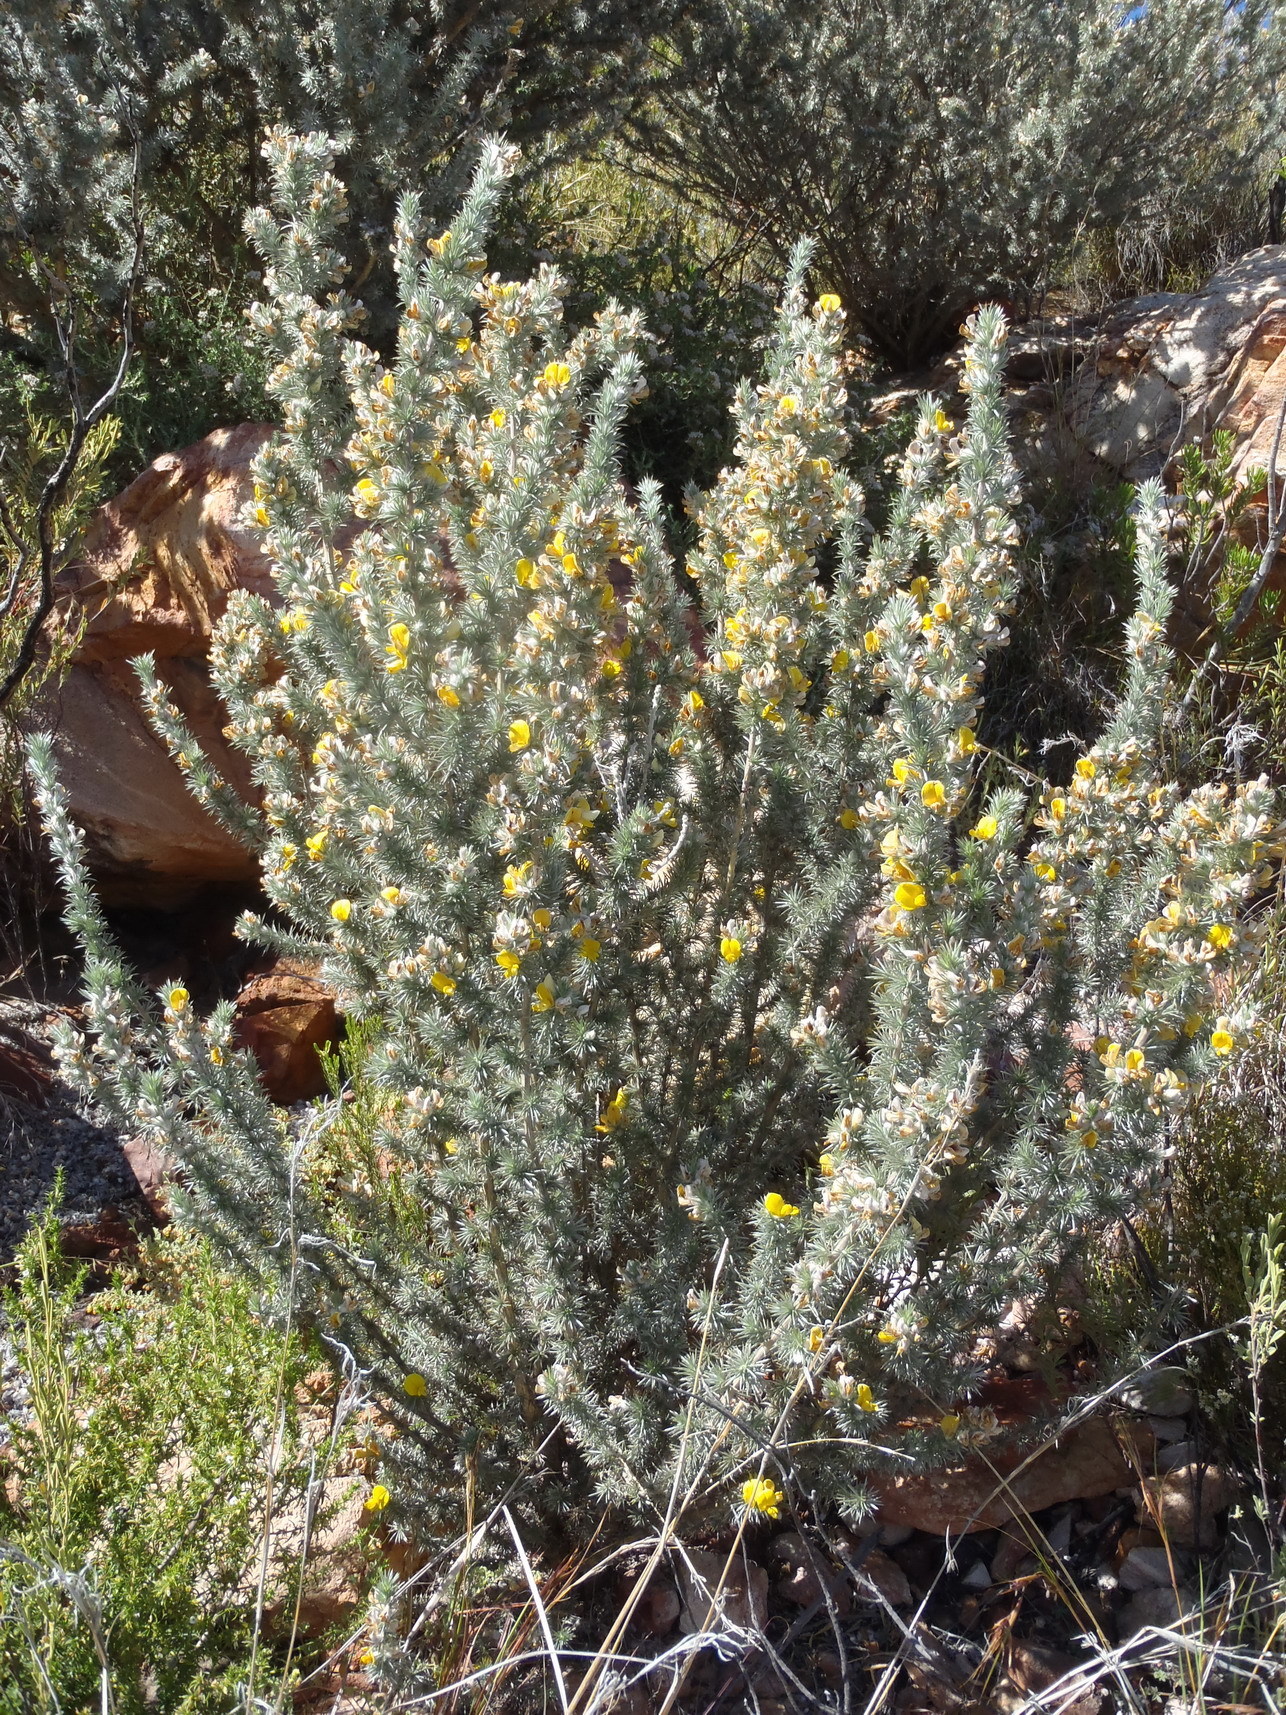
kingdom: Plantae
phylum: Tracheophyta
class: Magnoliopsida
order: Fabales
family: Fabaceae
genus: Aspalathus
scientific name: Aspalathus hystrix
